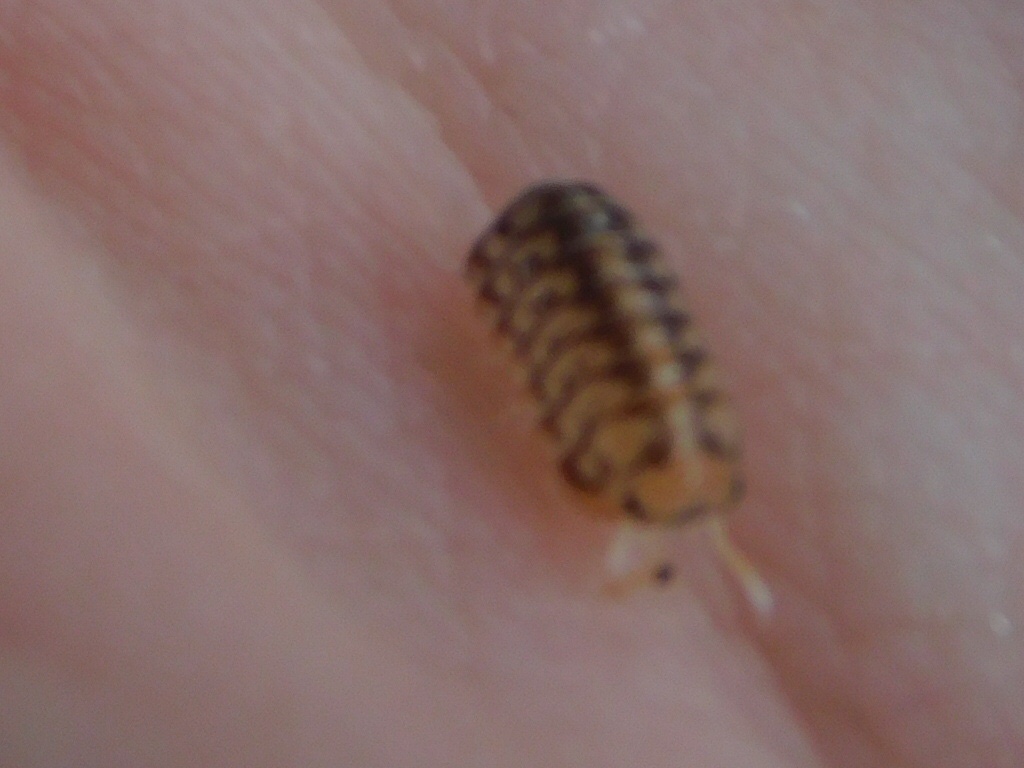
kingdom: Animalia
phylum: Arthropoda
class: Malacostraca
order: Isopoda
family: Armadillidae
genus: Venezillo
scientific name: Venezillo parvus
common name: Pillbug
